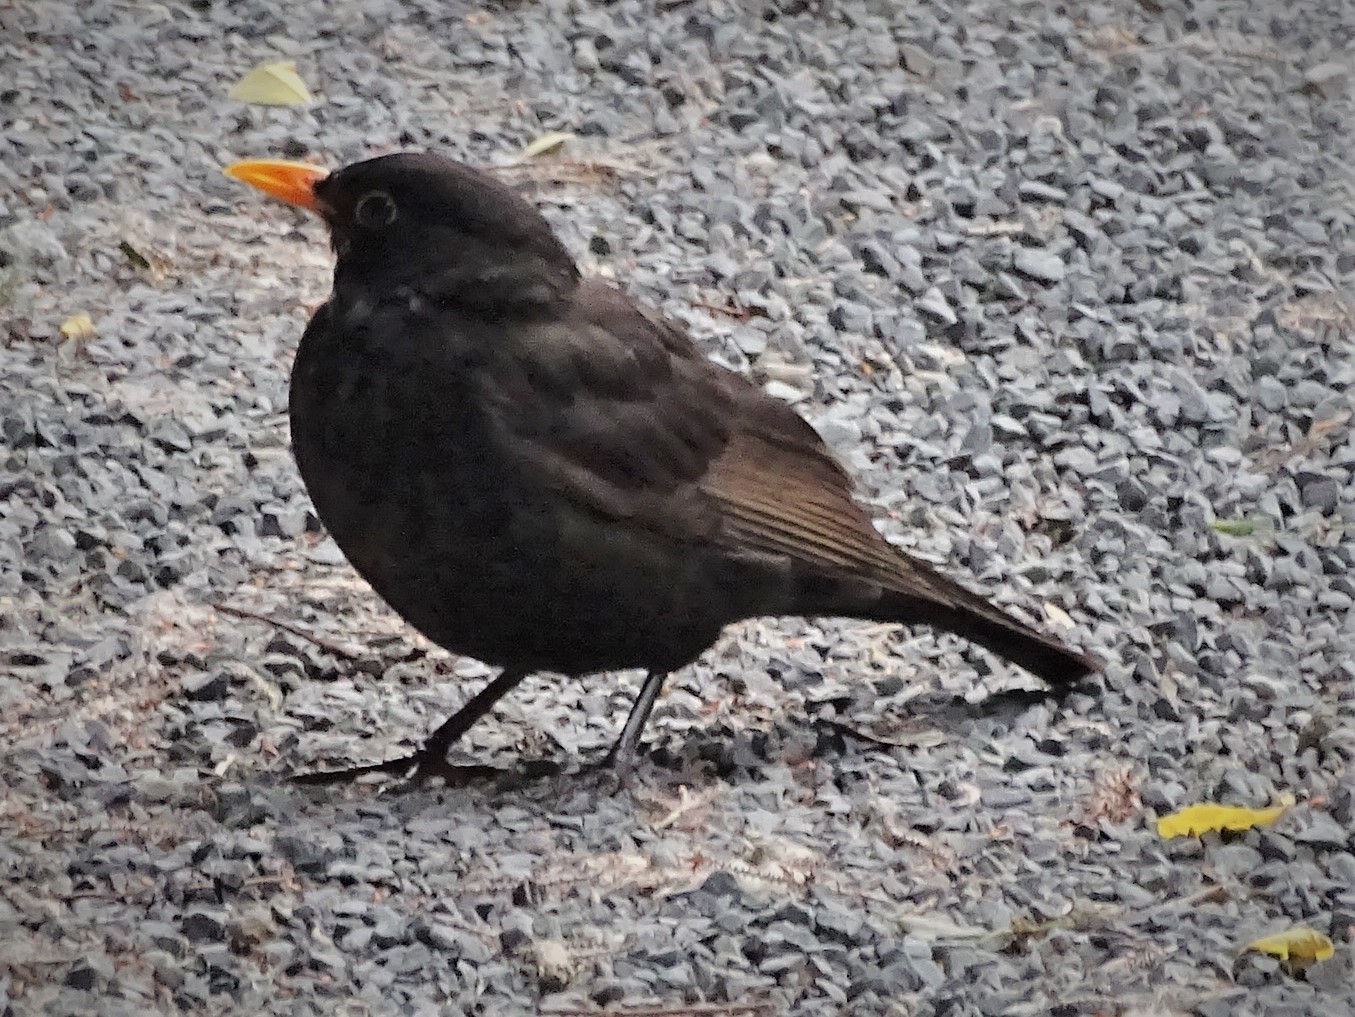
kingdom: Animalia
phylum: Chordata
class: Aves
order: Passeriformes
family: Turdidae
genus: Turdus
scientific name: Turdus merula
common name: Common blackbird
